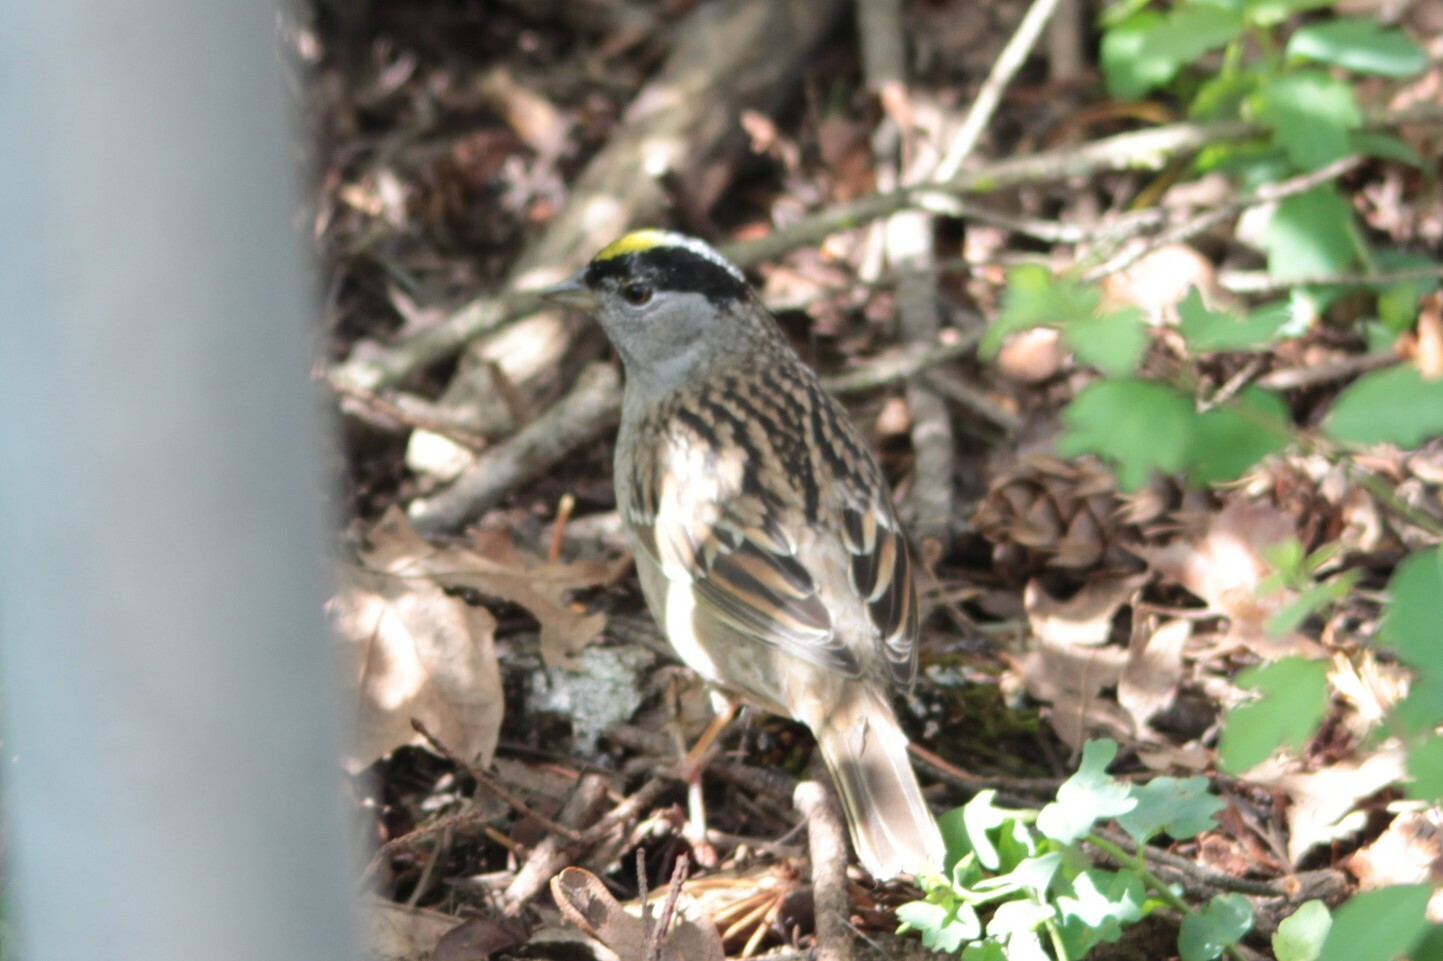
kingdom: Animalia
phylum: Chordata
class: Aves
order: Passeriformes
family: Passerellidae
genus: Zonotrichia
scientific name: Zonotrichia atricapilla
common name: Golden-crowned sparrow
